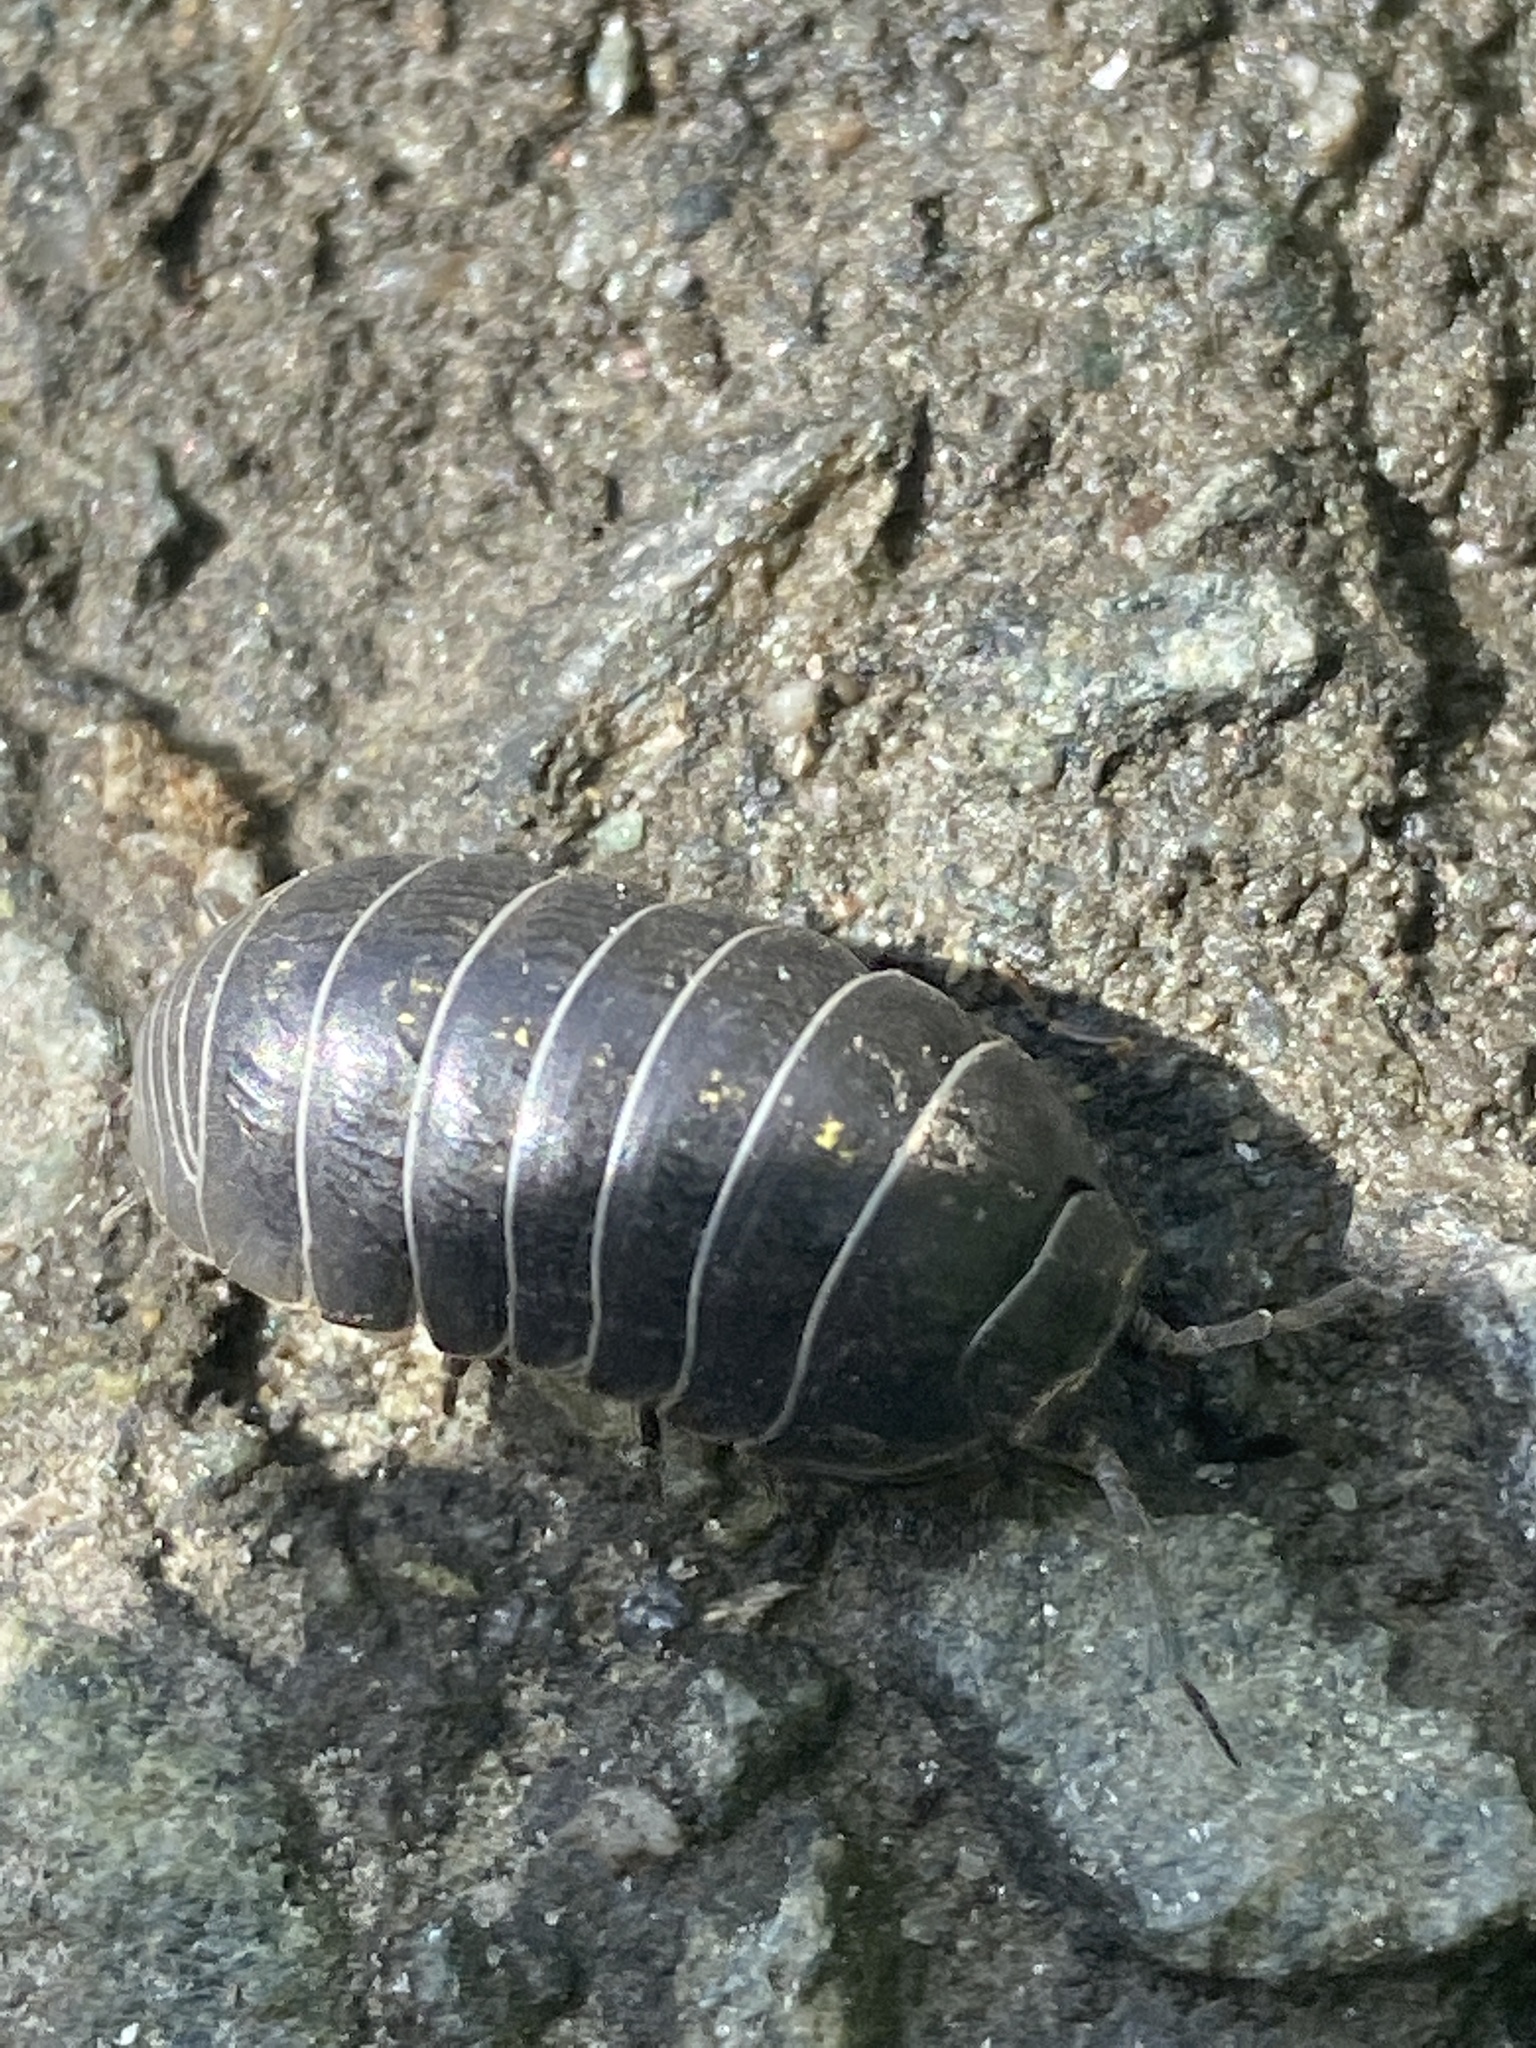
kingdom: Animalia
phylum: Arthropoda
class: Malacostraca
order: Isopoda
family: Armadillidiidae
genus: Armadillidium
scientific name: Armadillidium vulgare
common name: Common pill woodlouse
